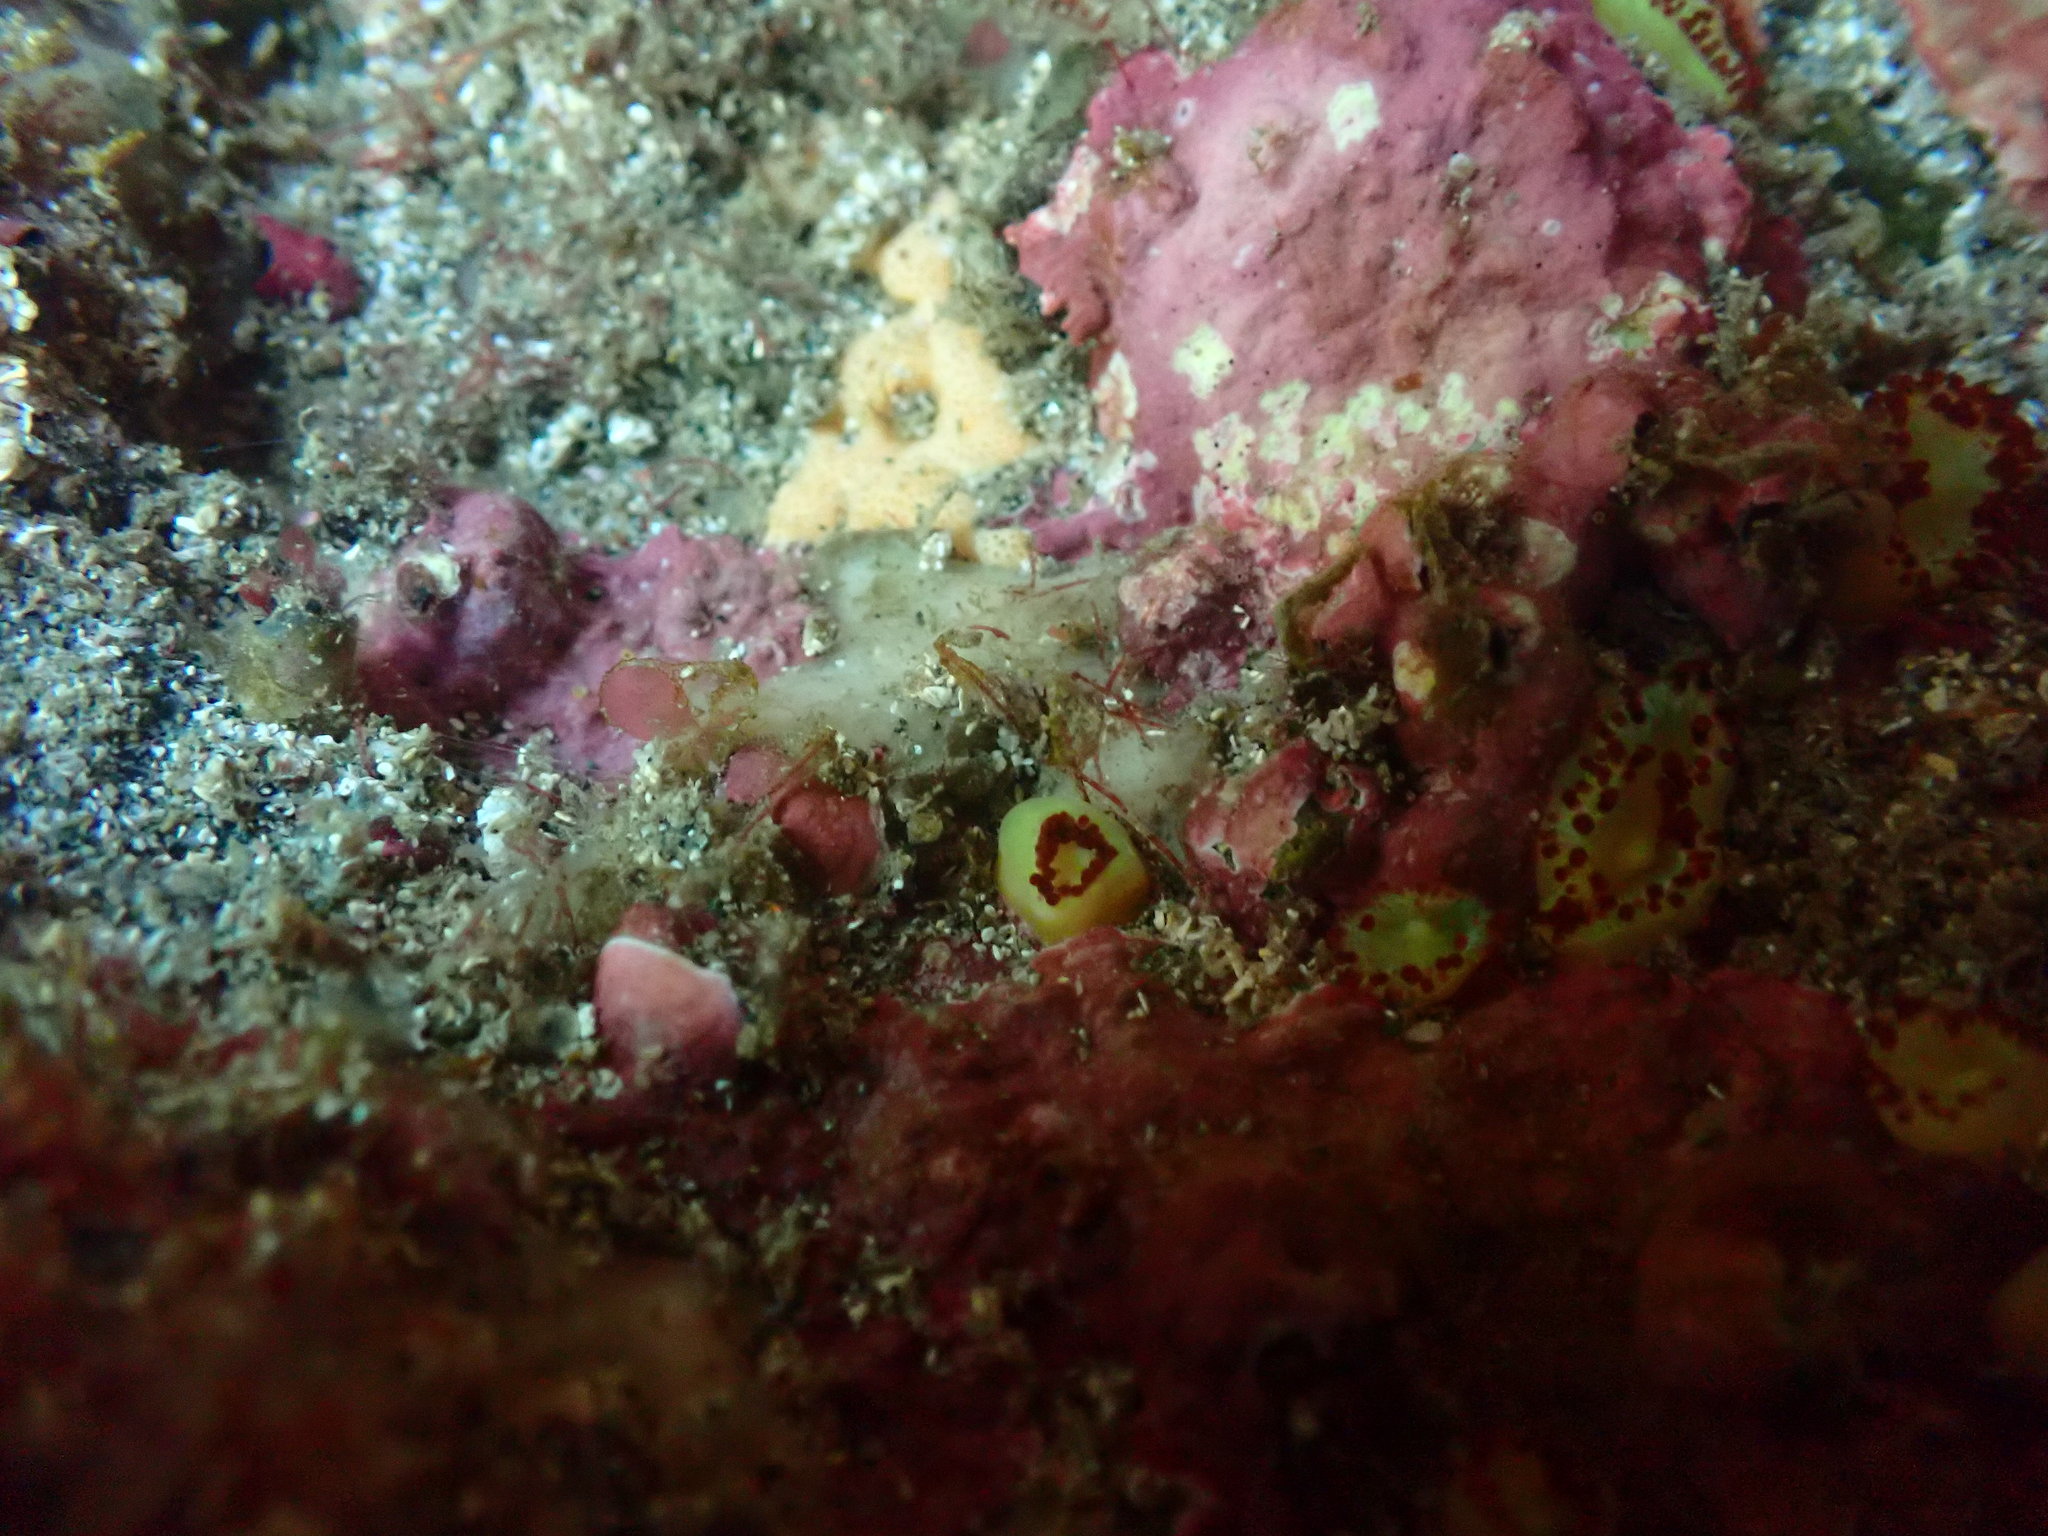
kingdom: Animalia
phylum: Cnidaria
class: Anthozoa
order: Corallimorpharia
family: Corallimorphidae
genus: Corynactis
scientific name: Corynactis australis
